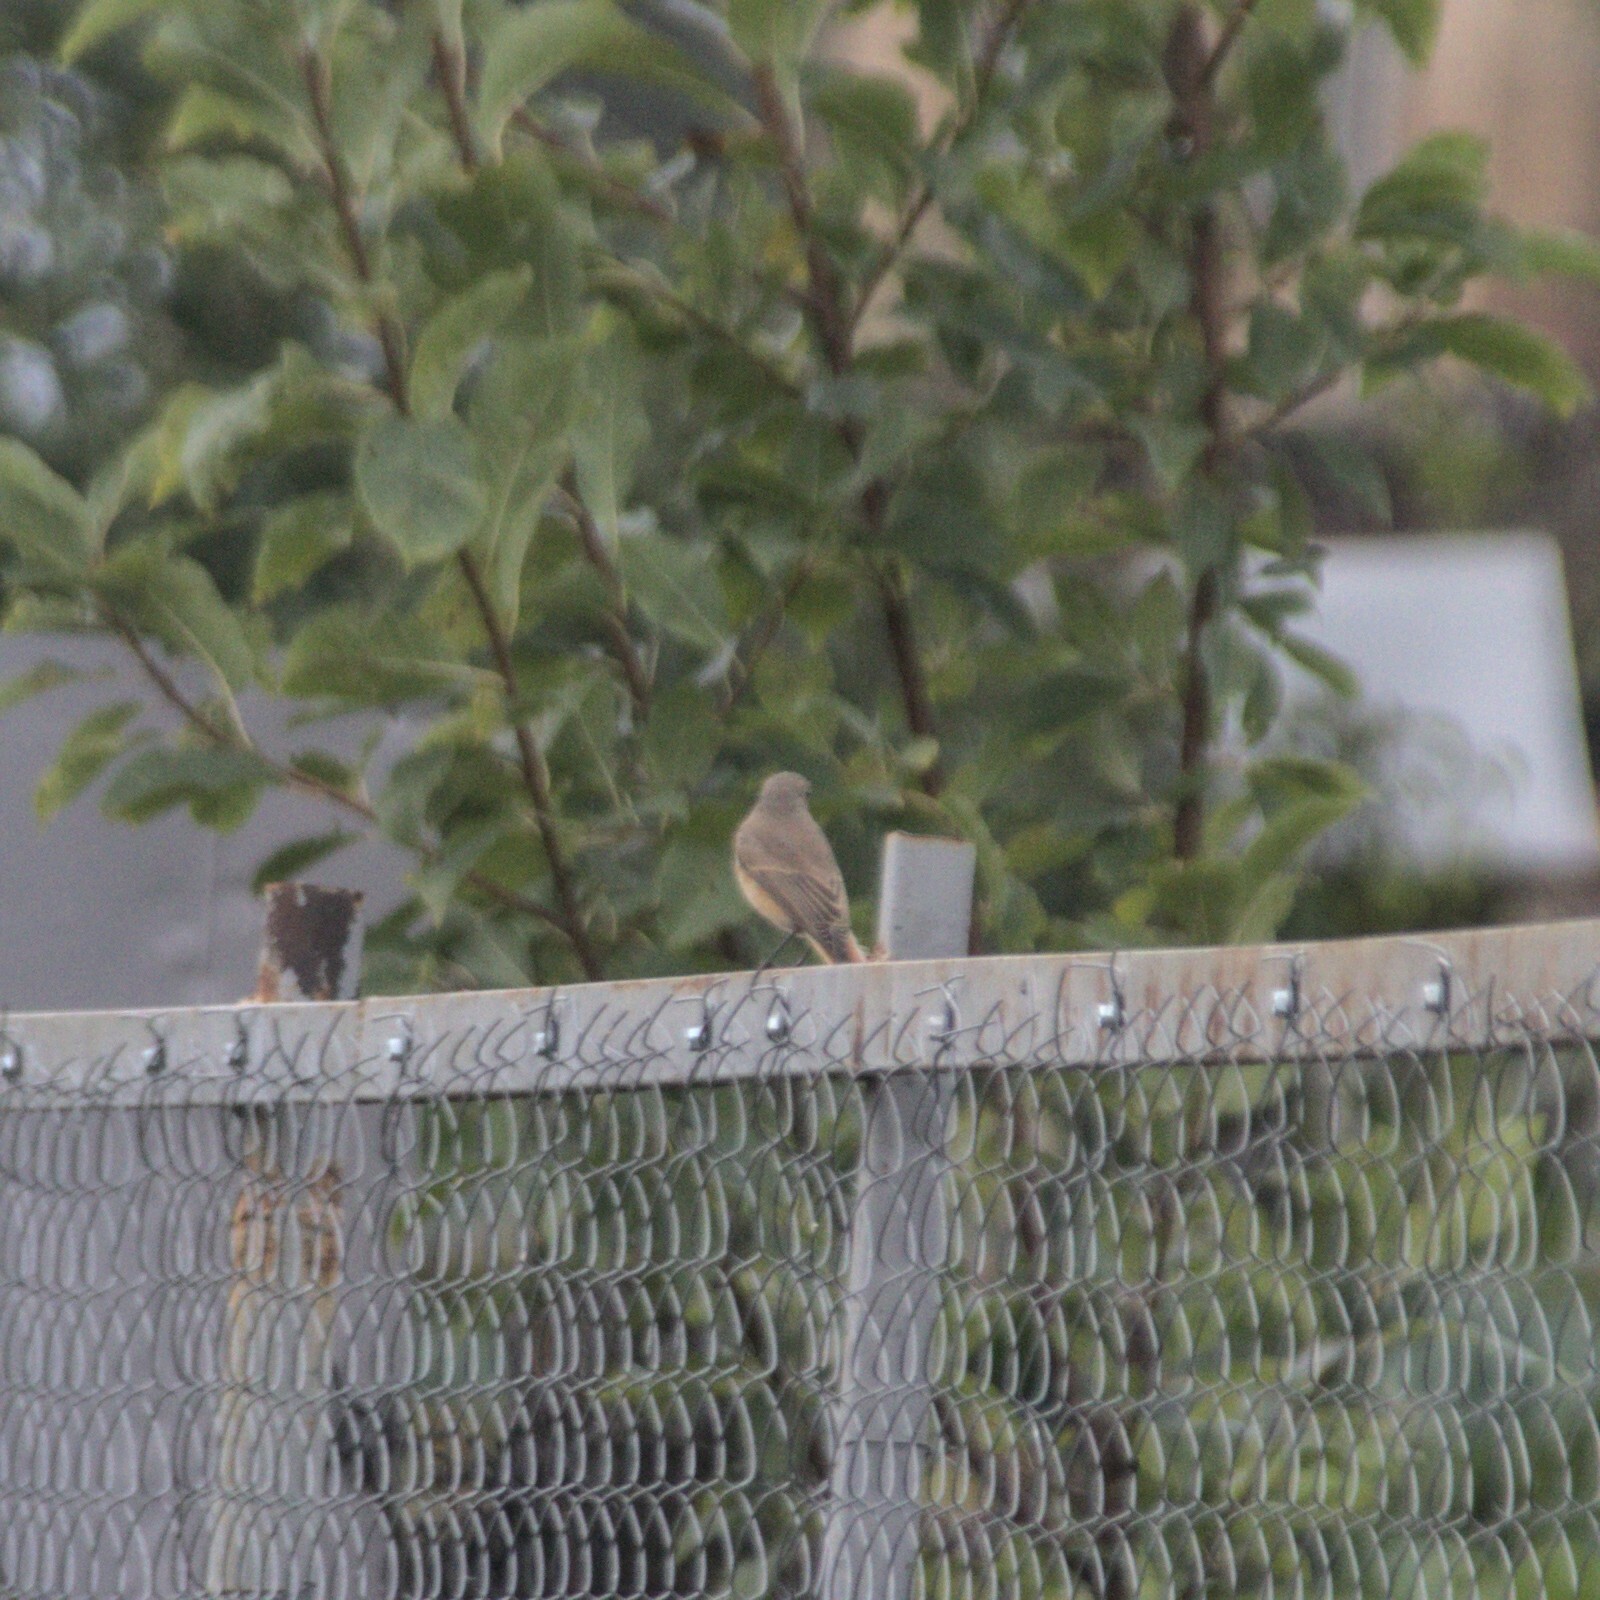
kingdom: Animalia
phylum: Chordata
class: Aves
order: Passeriformes
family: Muscicapidae
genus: Phoenicurus
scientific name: Phoenicurus phoenicurus
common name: Common redstart
